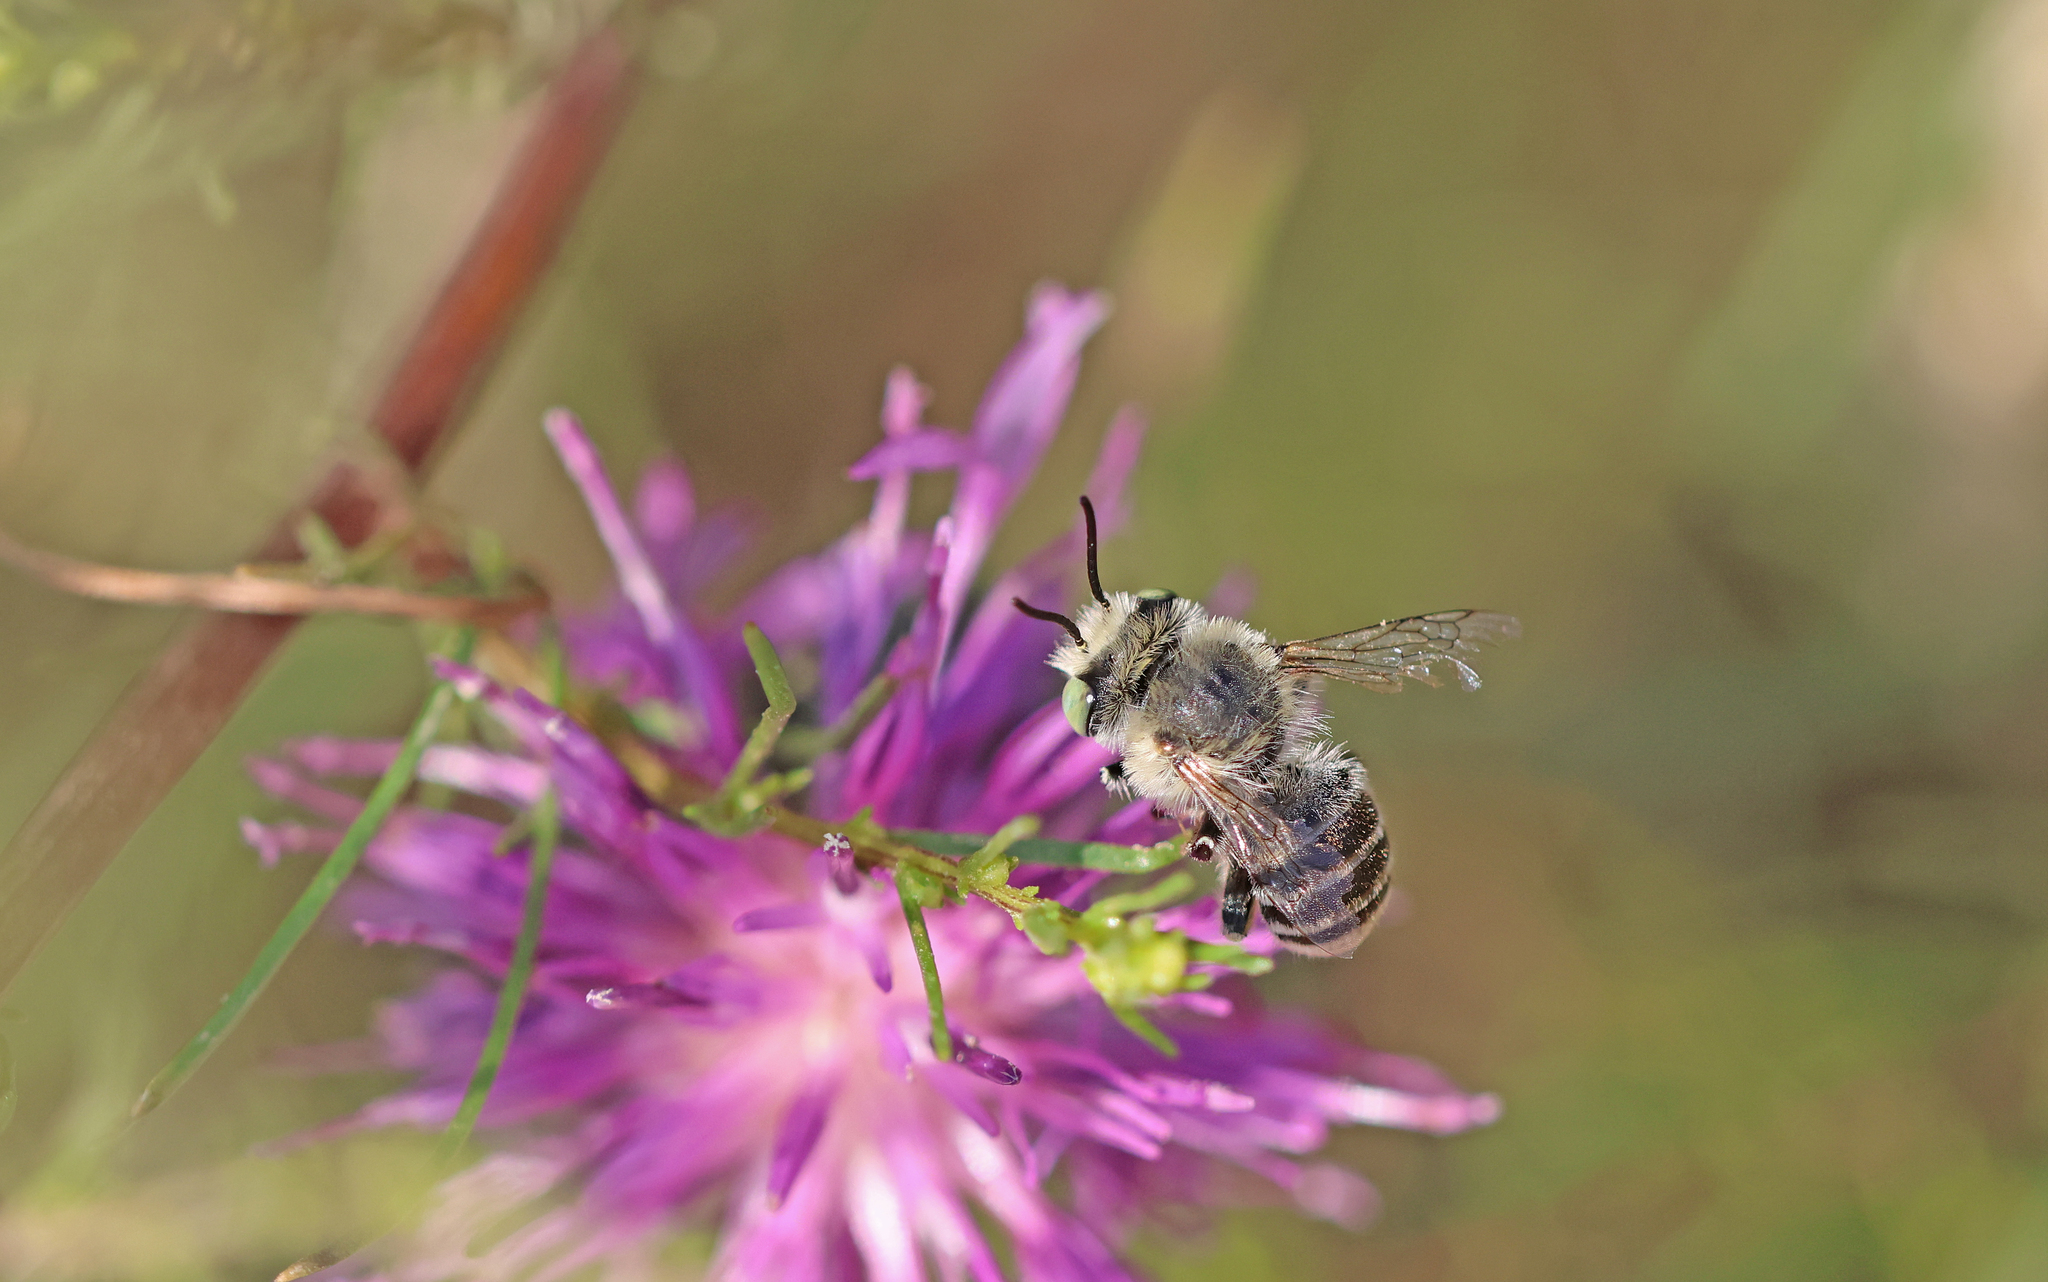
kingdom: Animalia
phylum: Arthropoda
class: Insecta
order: Hymenoptera
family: Apidae
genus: Anthophora
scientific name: Anthophora bimaculata
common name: Green-eyed flower bee
